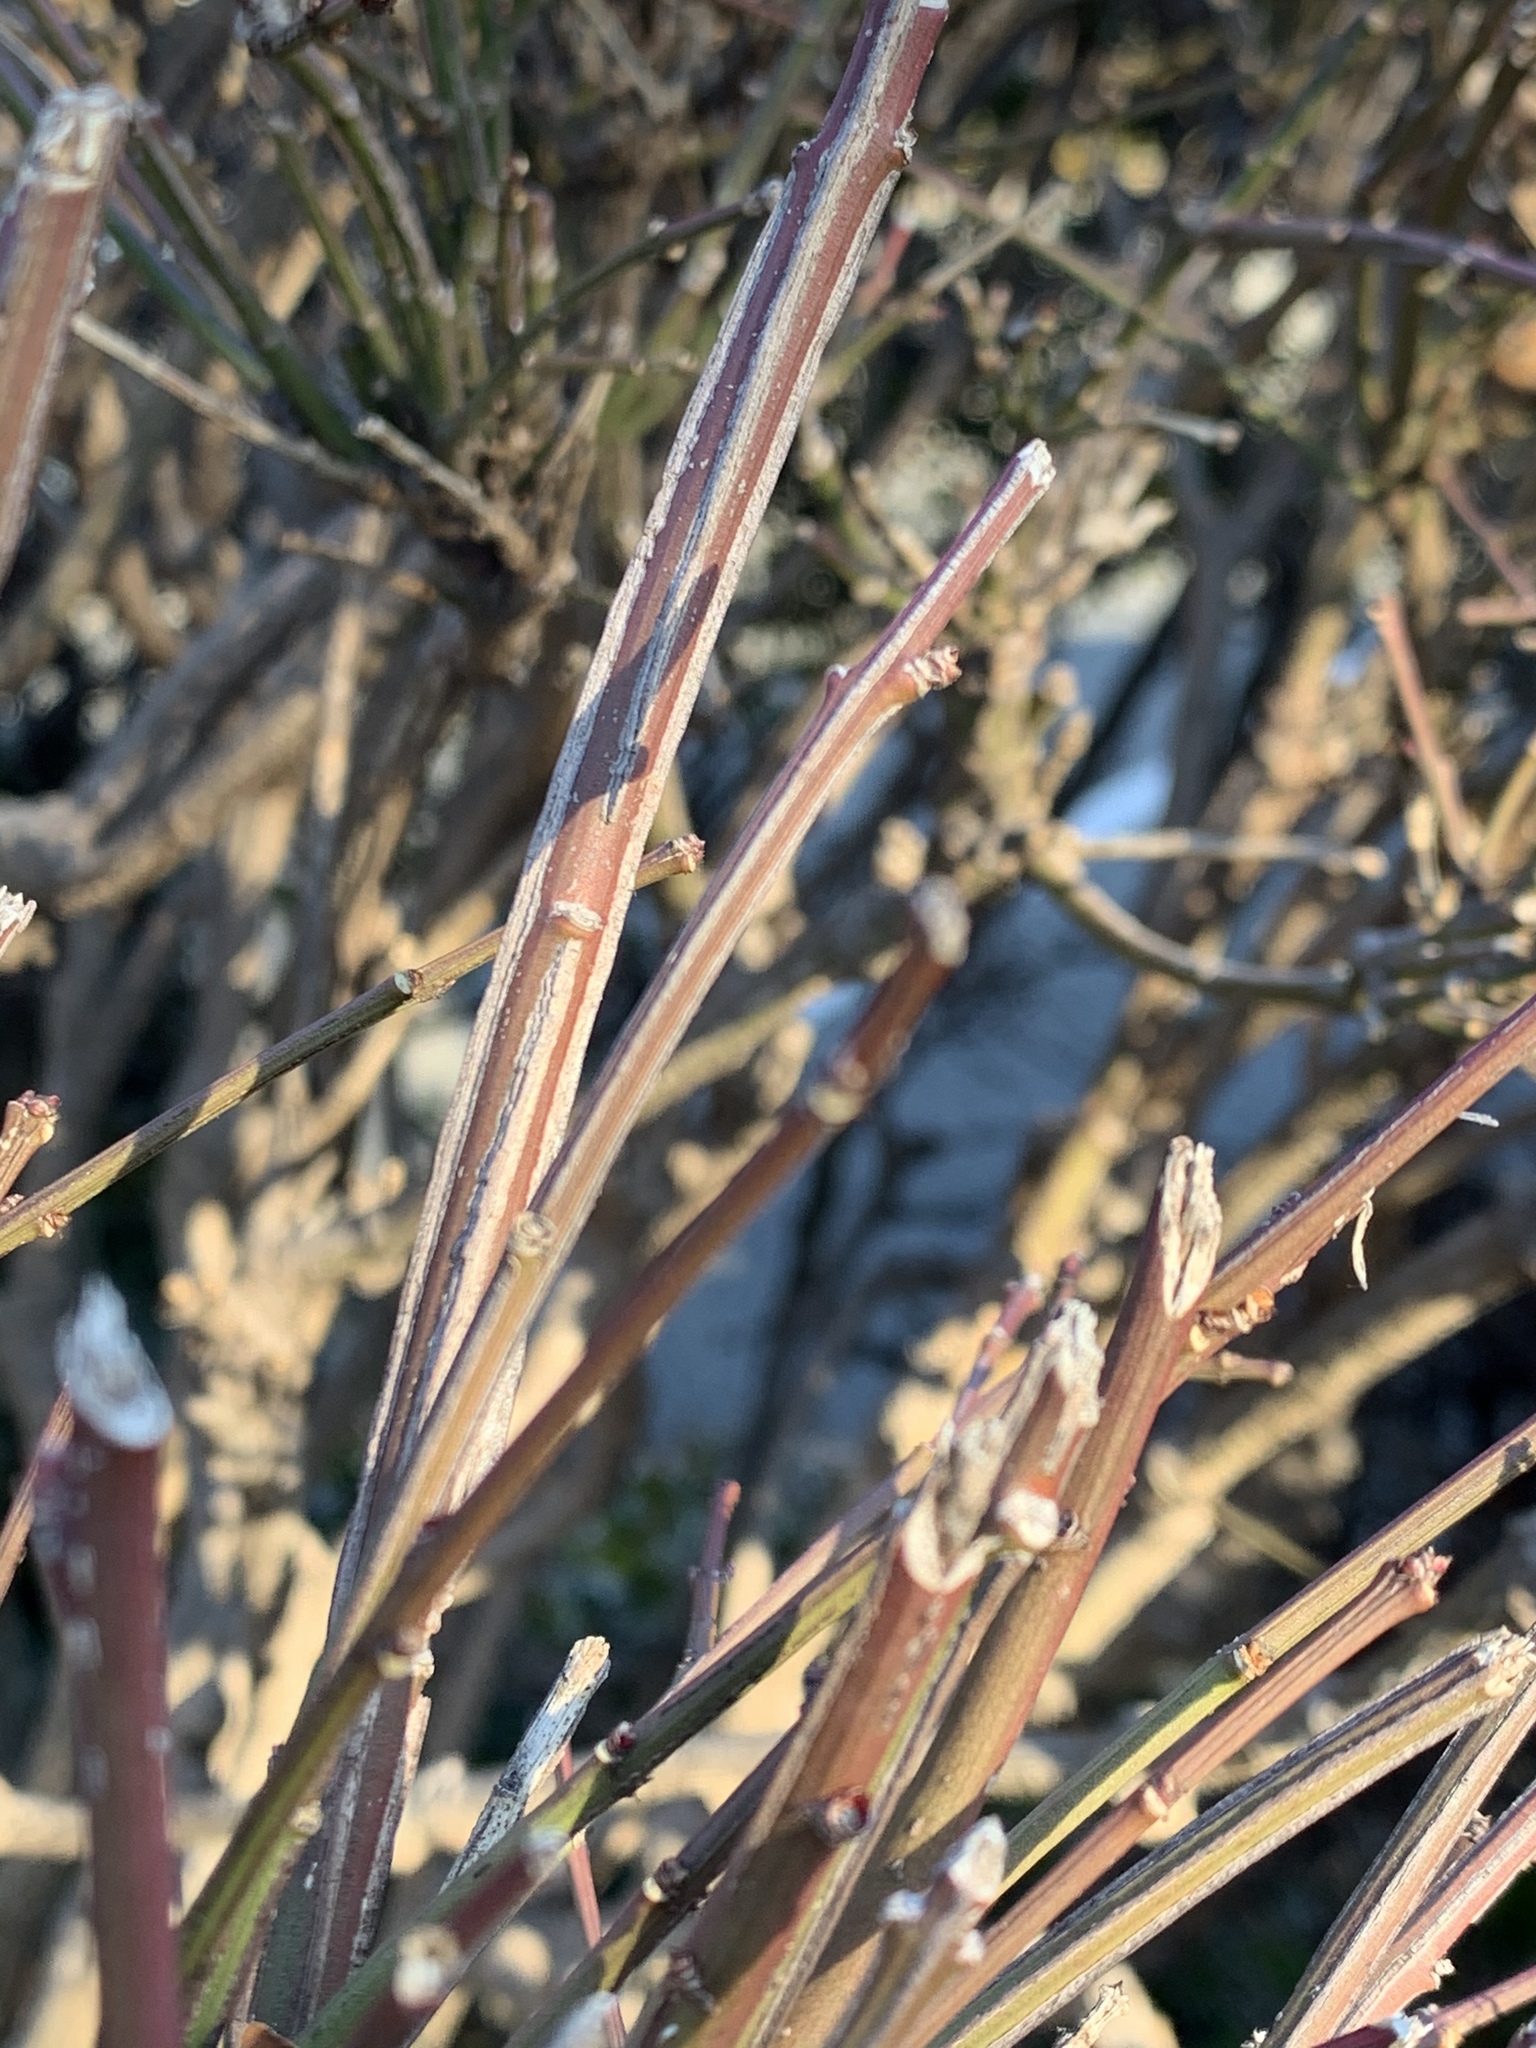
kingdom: Plantae
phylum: Tracheophyta
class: Magnoliopsida
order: Celastrales
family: Celastraceae
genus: Euonymus
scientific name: Euonymus alatus
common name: Winged euonymus
